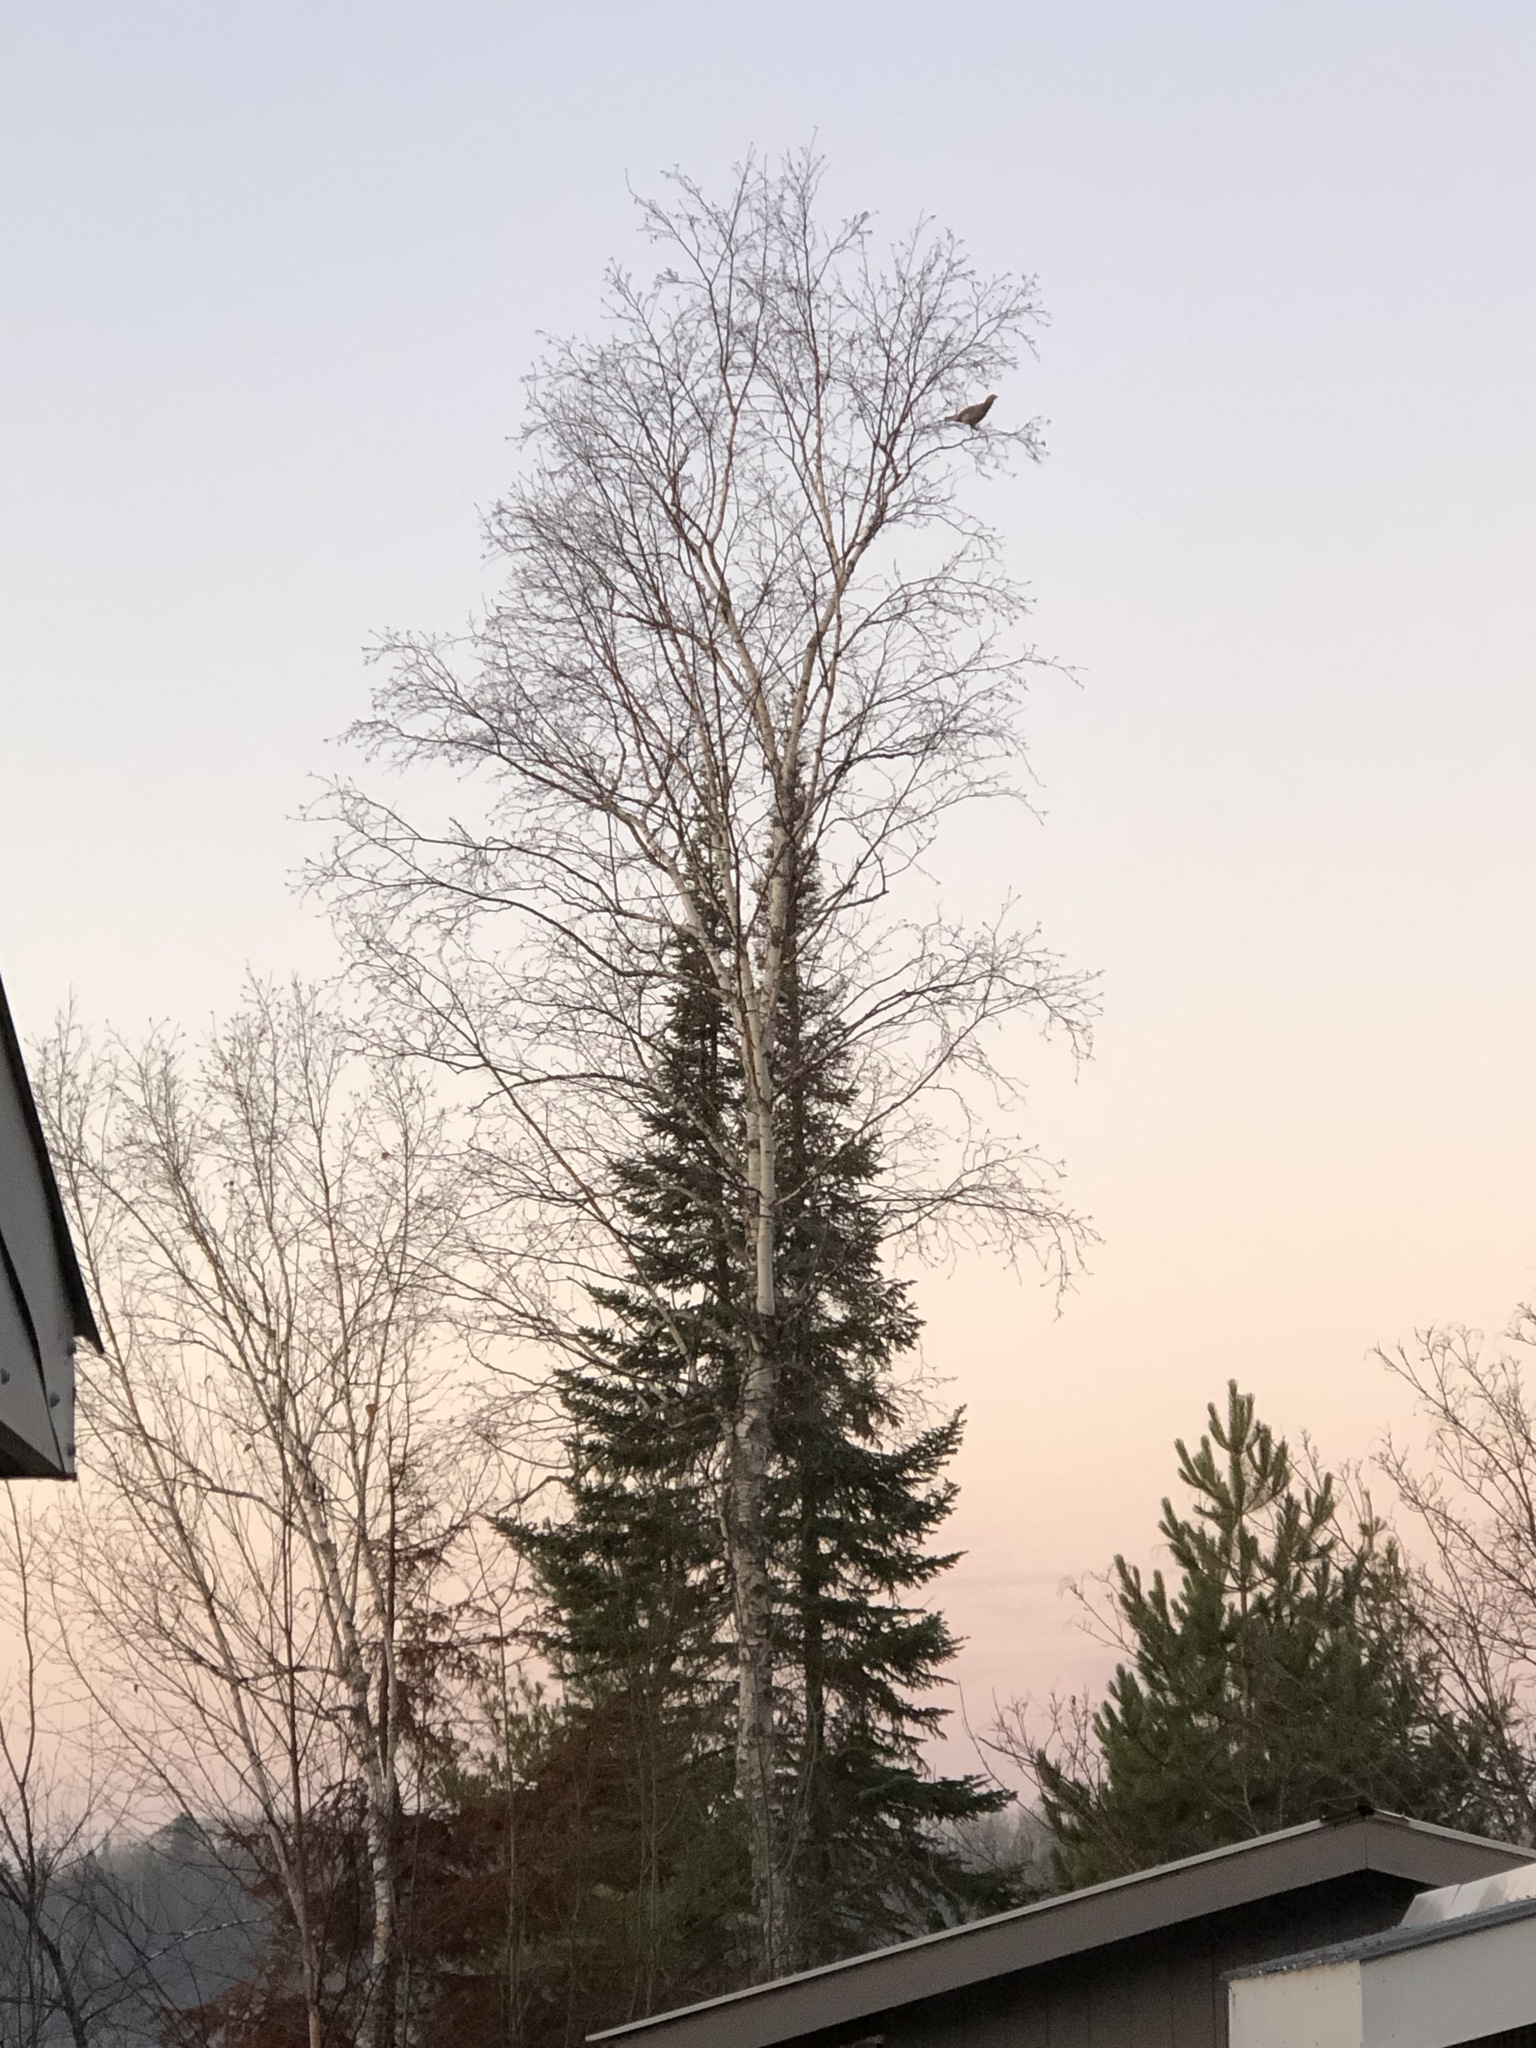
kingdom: Animalia
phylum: Chordata
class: Aves
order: Galliformes
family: Phasianidae
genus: Bonasa
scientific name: Bonasa umbellus
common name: Ruffed grouse
